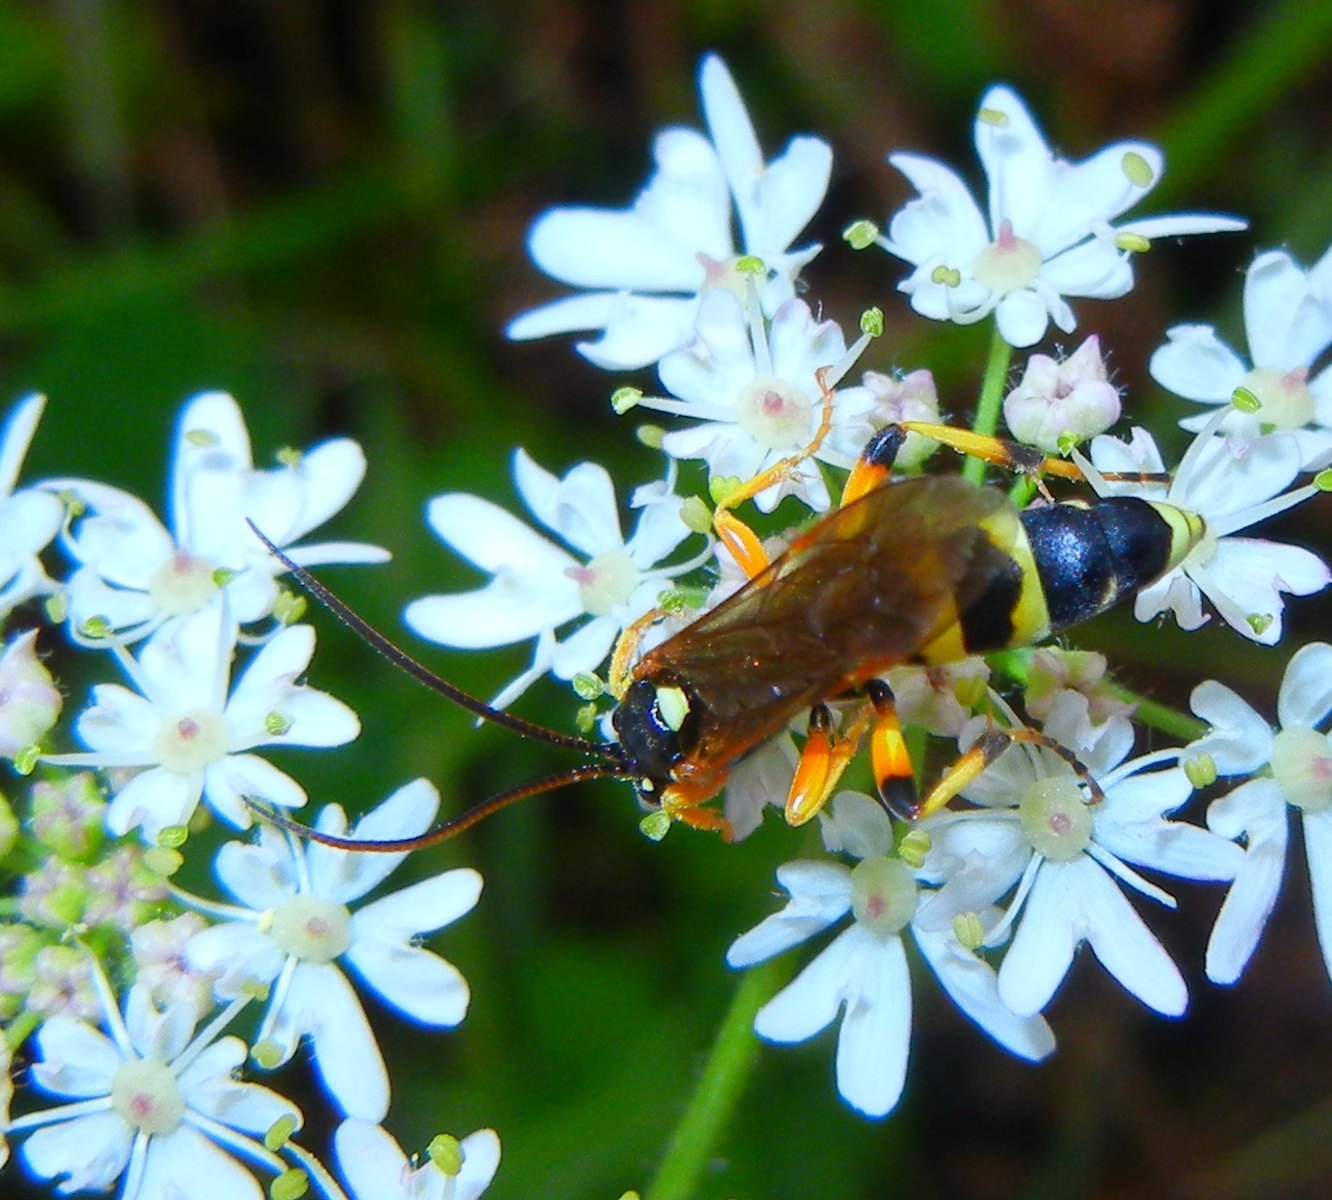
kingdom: Animalia
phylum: Arthropoda
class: Insecta
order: Hymenoptera
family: Ichneumonidae
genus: Ichneumon
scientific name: Ichneumon sarcitorius
